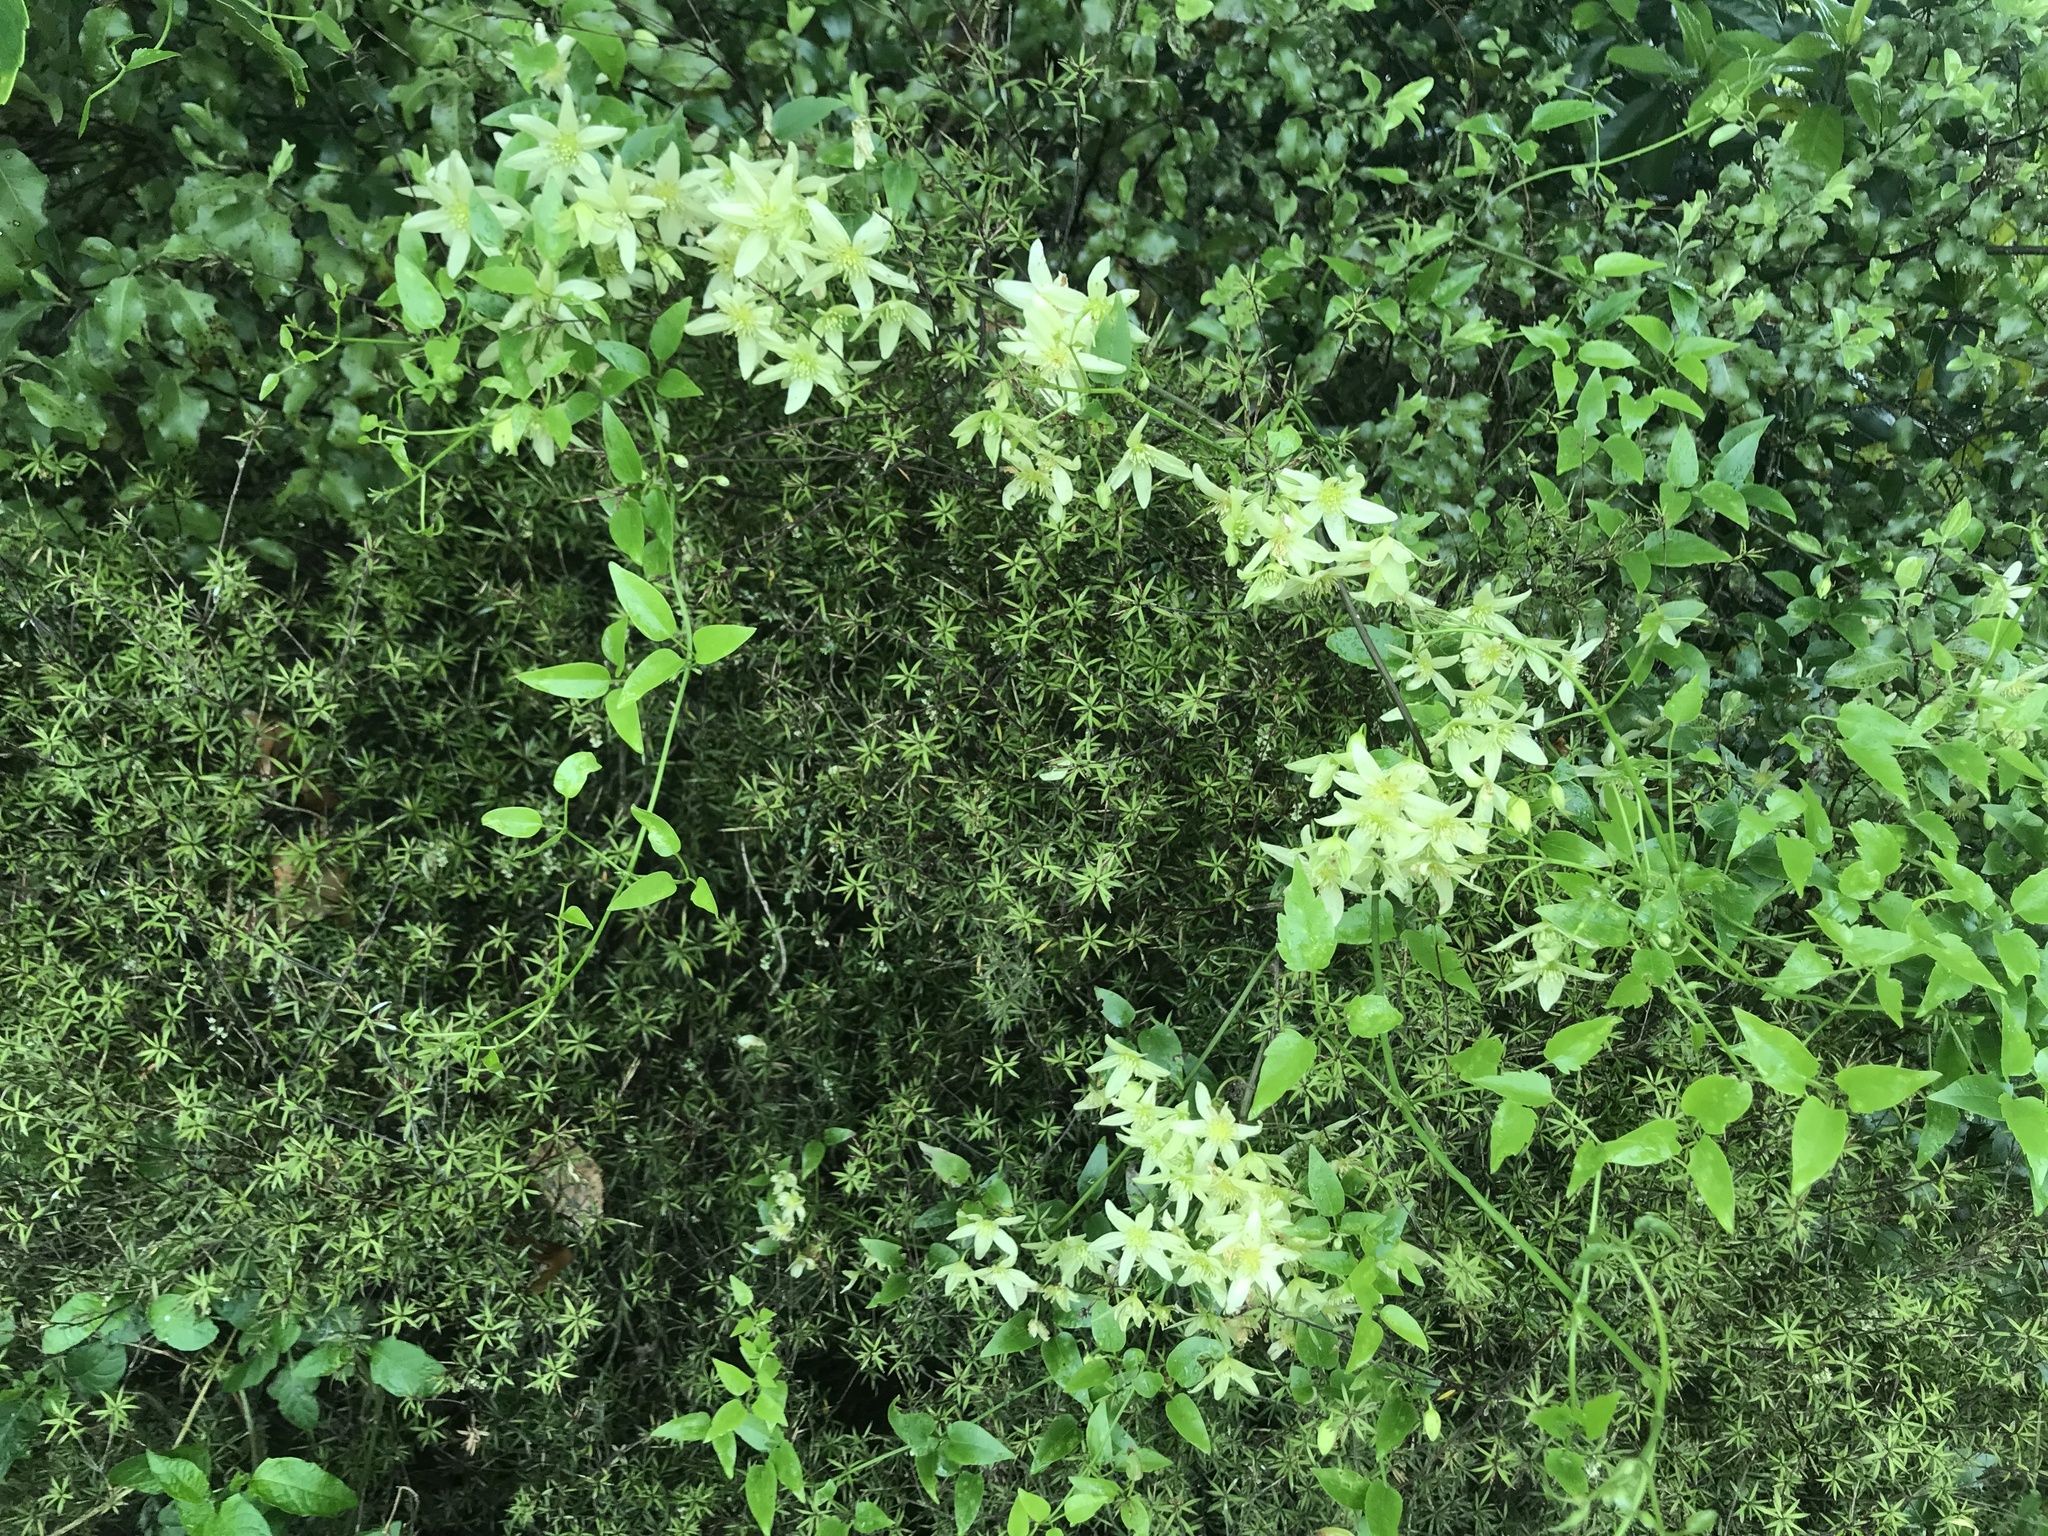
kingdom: Plantae
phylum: Tracheophyta
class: Magnoliopsida
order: Ranunculales
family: Ranunculaceae
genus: Clematis
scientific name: Clematis forsteri
